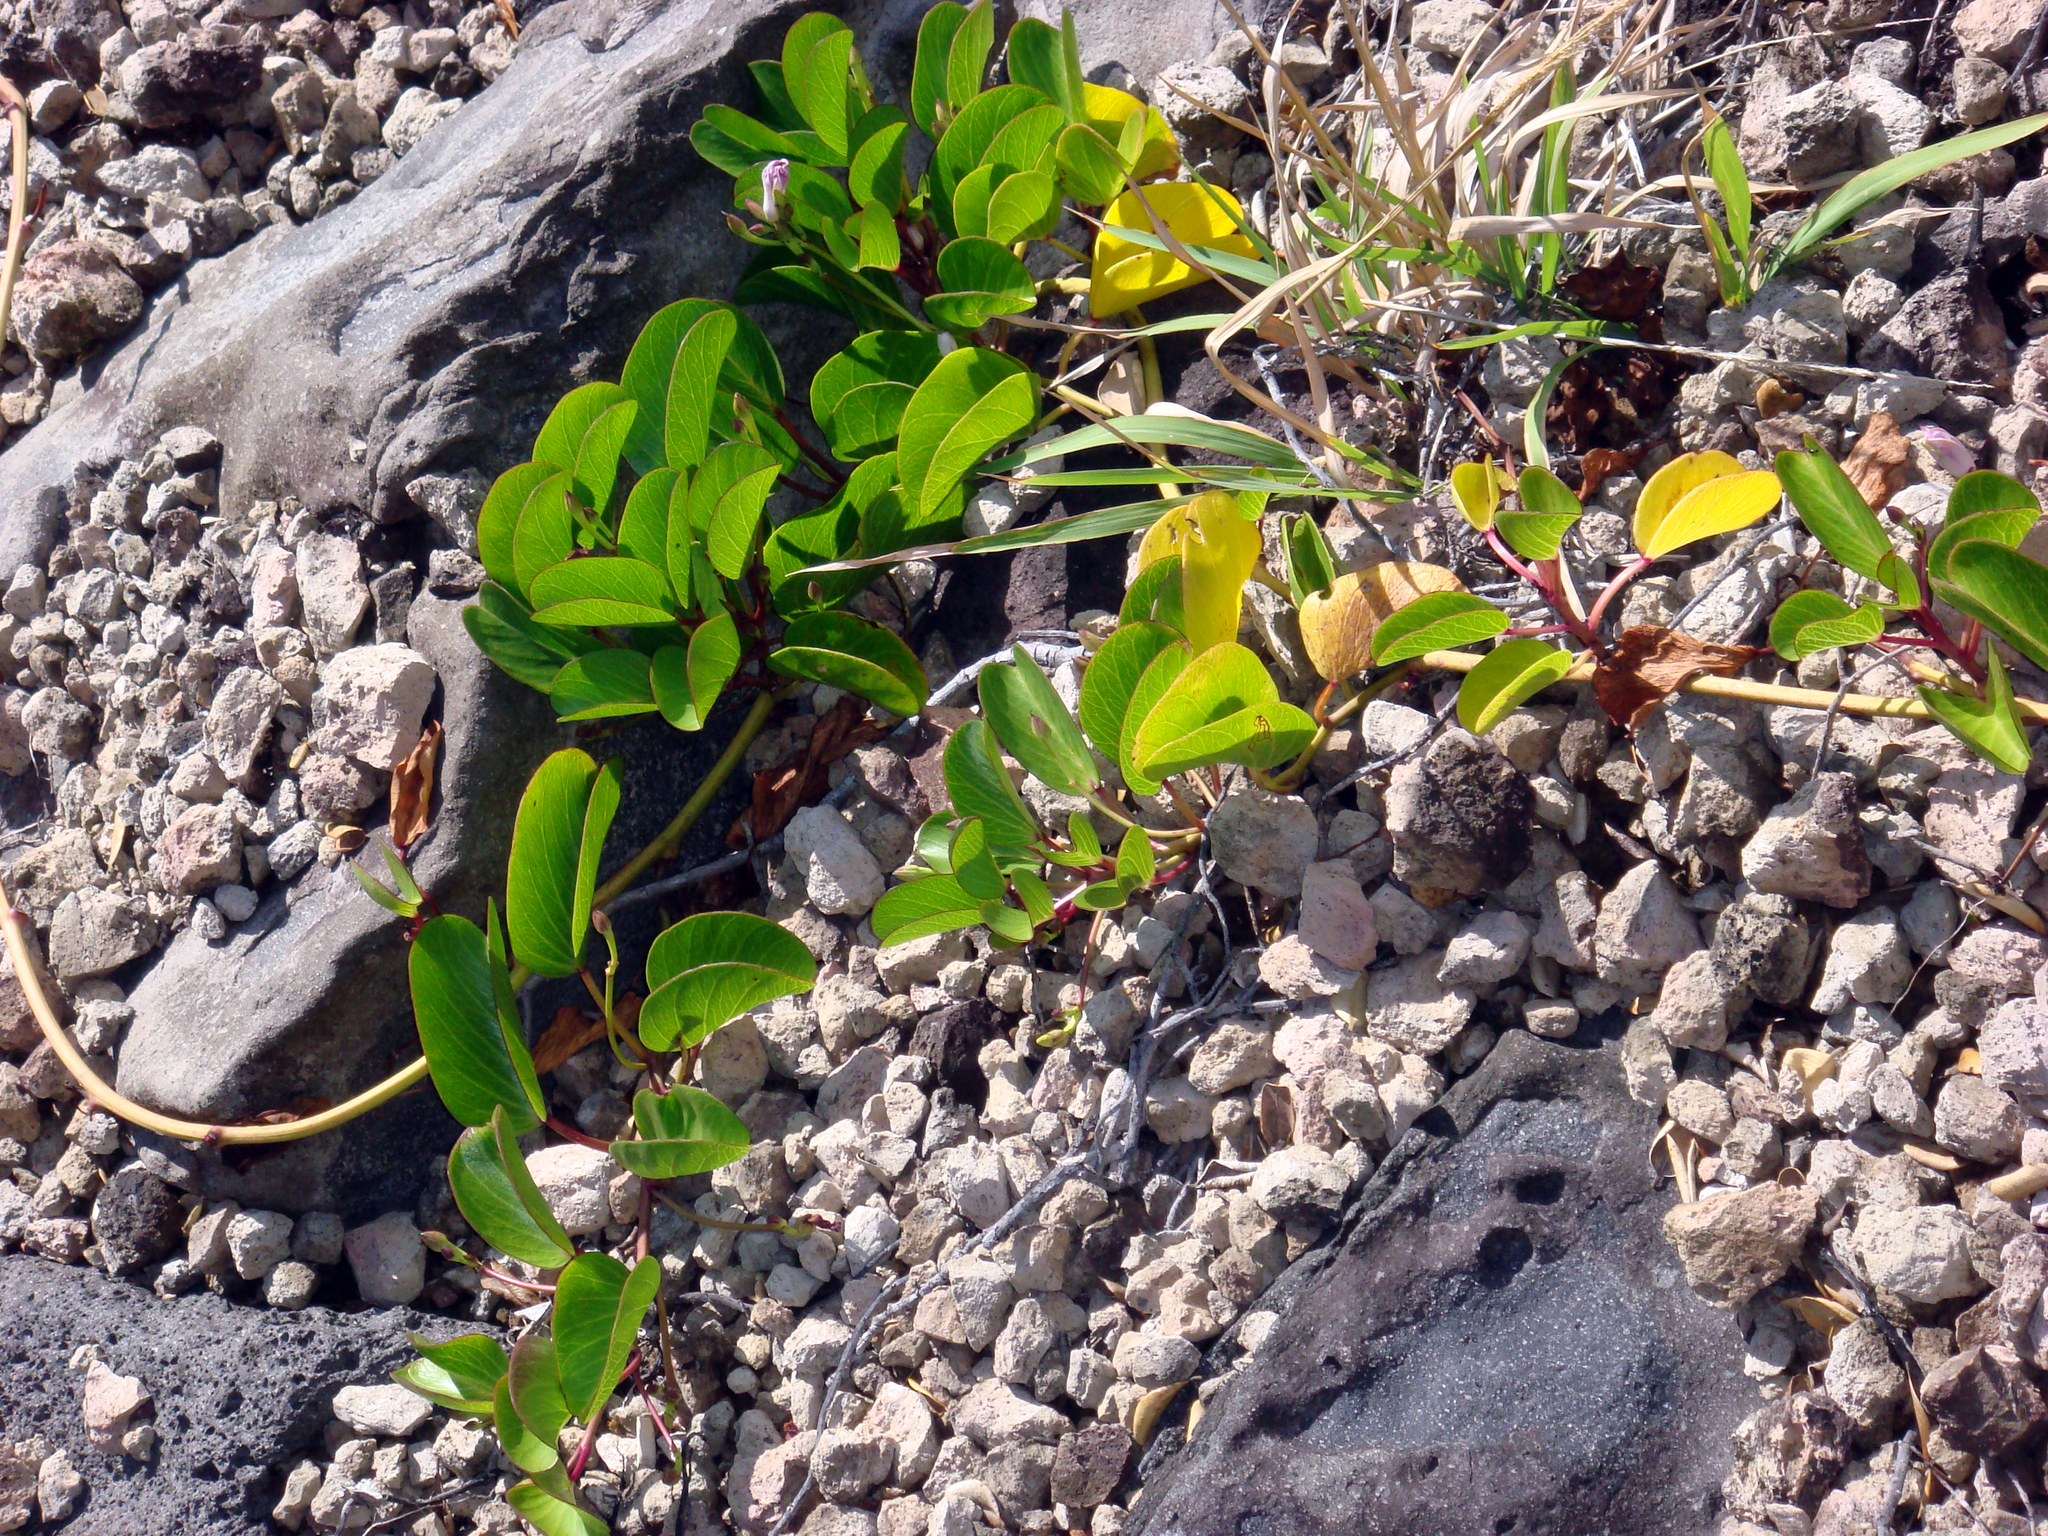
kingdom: Plantae
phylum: Tracheophyta
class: Magnoliopsida
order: Solanales
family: Convolvulaceae
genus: Ipomoea
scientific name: Ipomoea pes-caprae
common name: Beach morning glory
